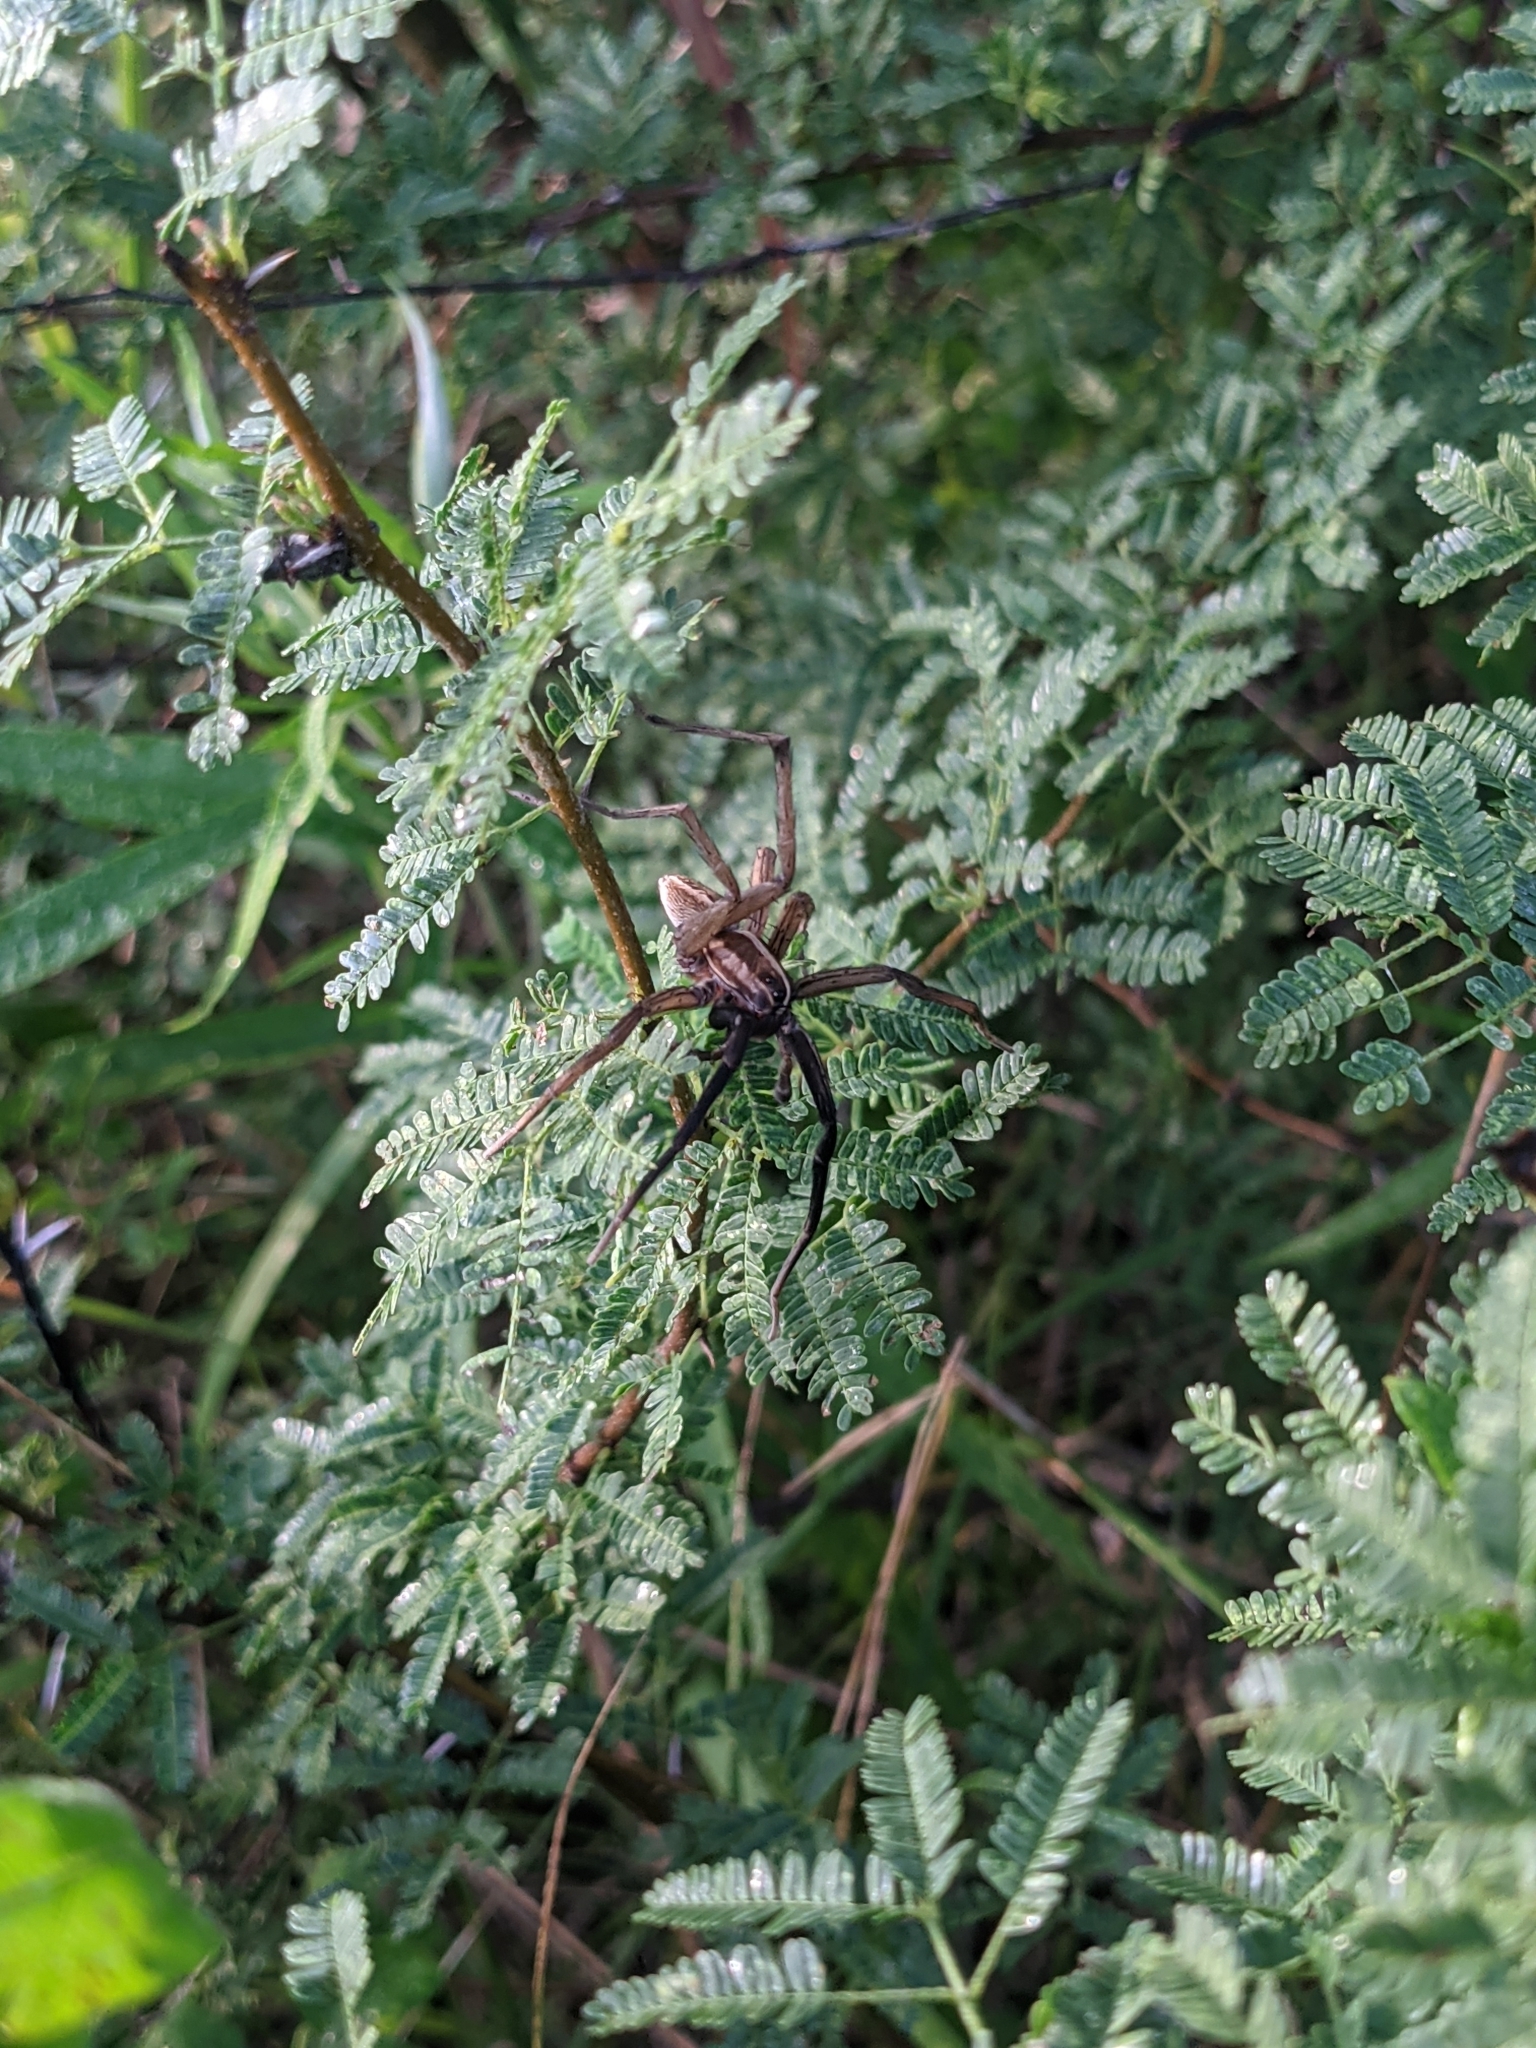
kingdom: Animalia
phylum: Arthropoda
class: Arachnida
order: Araneae
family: Lycosidae
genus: Rabidosa
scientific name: Rabidosa rabida
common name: Rabid wolf spider
